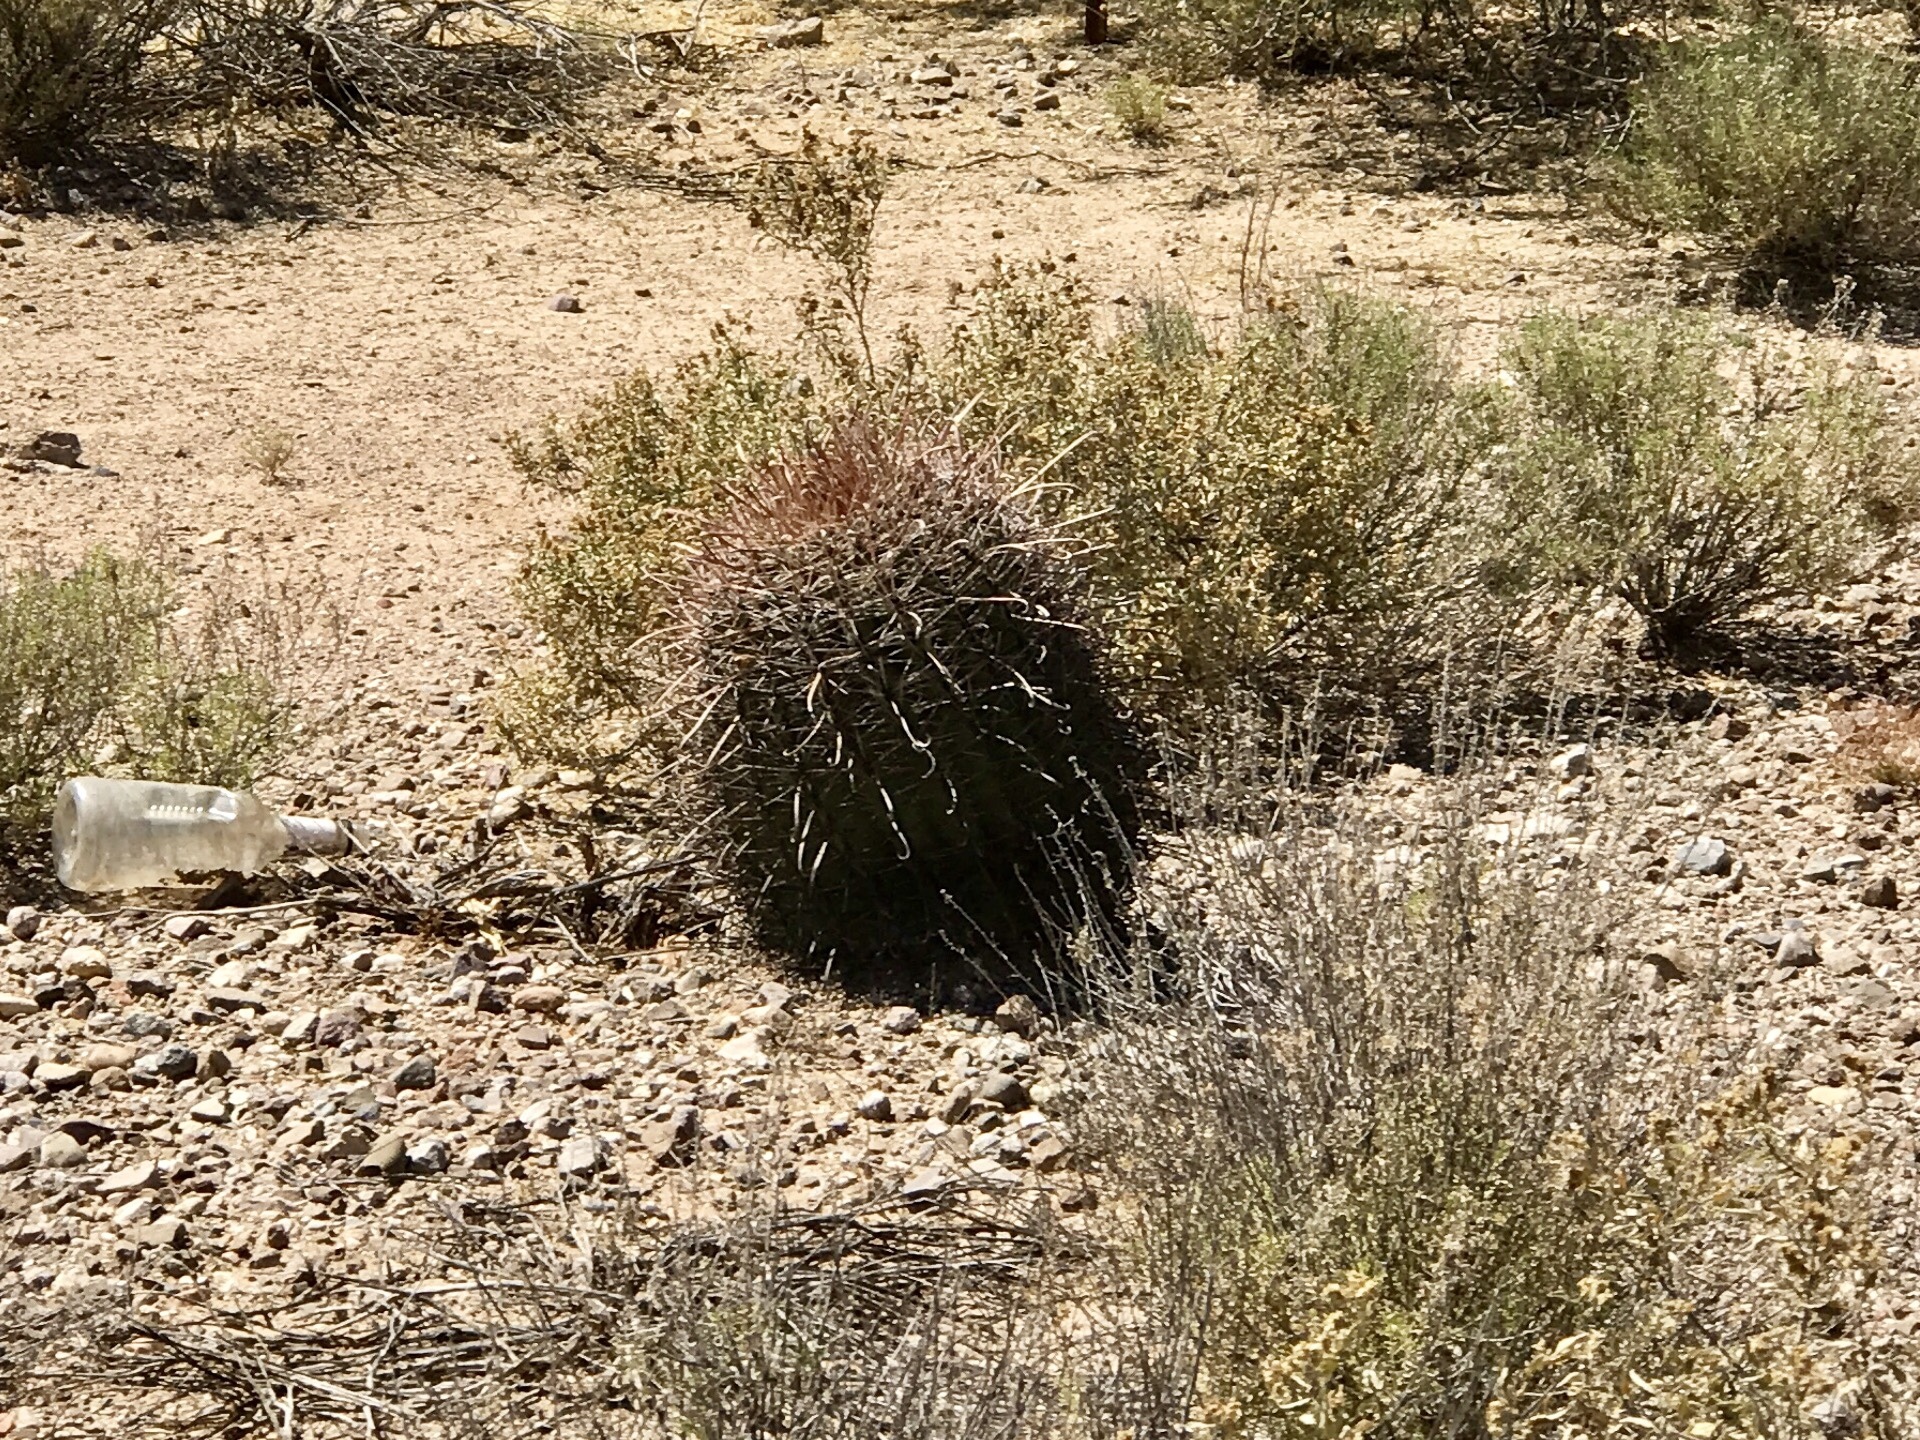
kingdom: Plantae
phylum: Tracheophyta
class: Magnoliopsida
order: Caryophyllales
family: Cactaceae
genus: Ferocactus
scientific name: Ferocactus wislizeni
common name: Candy barrel cactus
